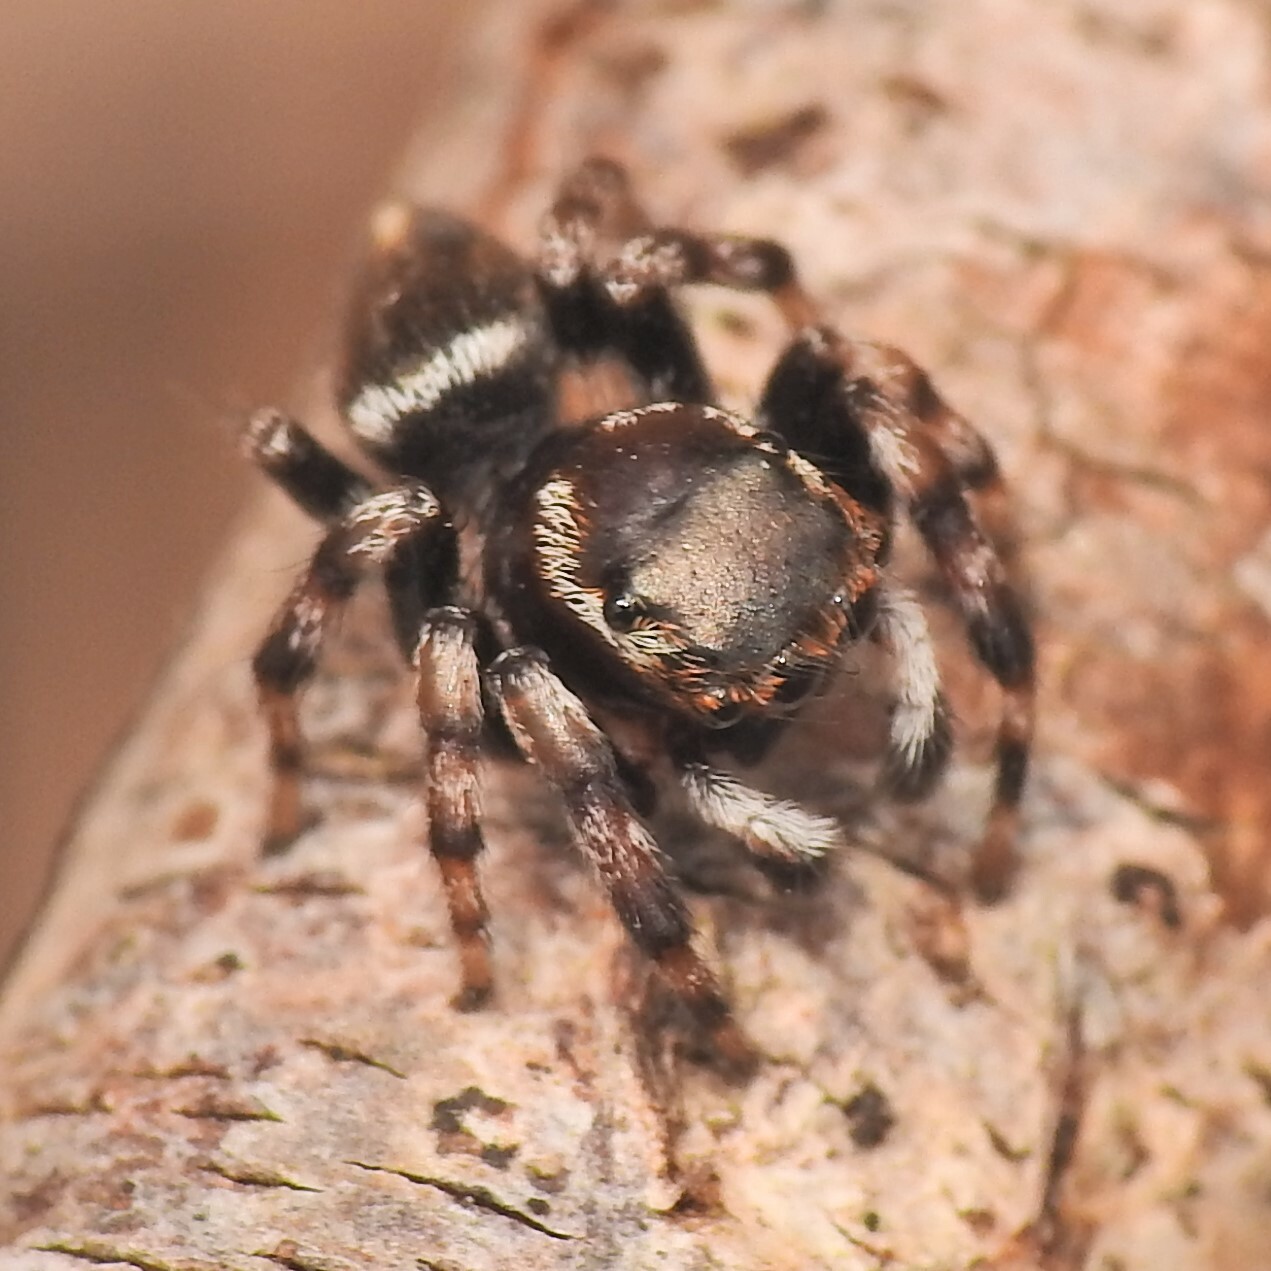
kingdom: Animalia
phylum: Arthropoda
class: Arachnida
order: Araneae
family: Salticidae
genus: Maratus
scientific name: Maratus scutulatus
